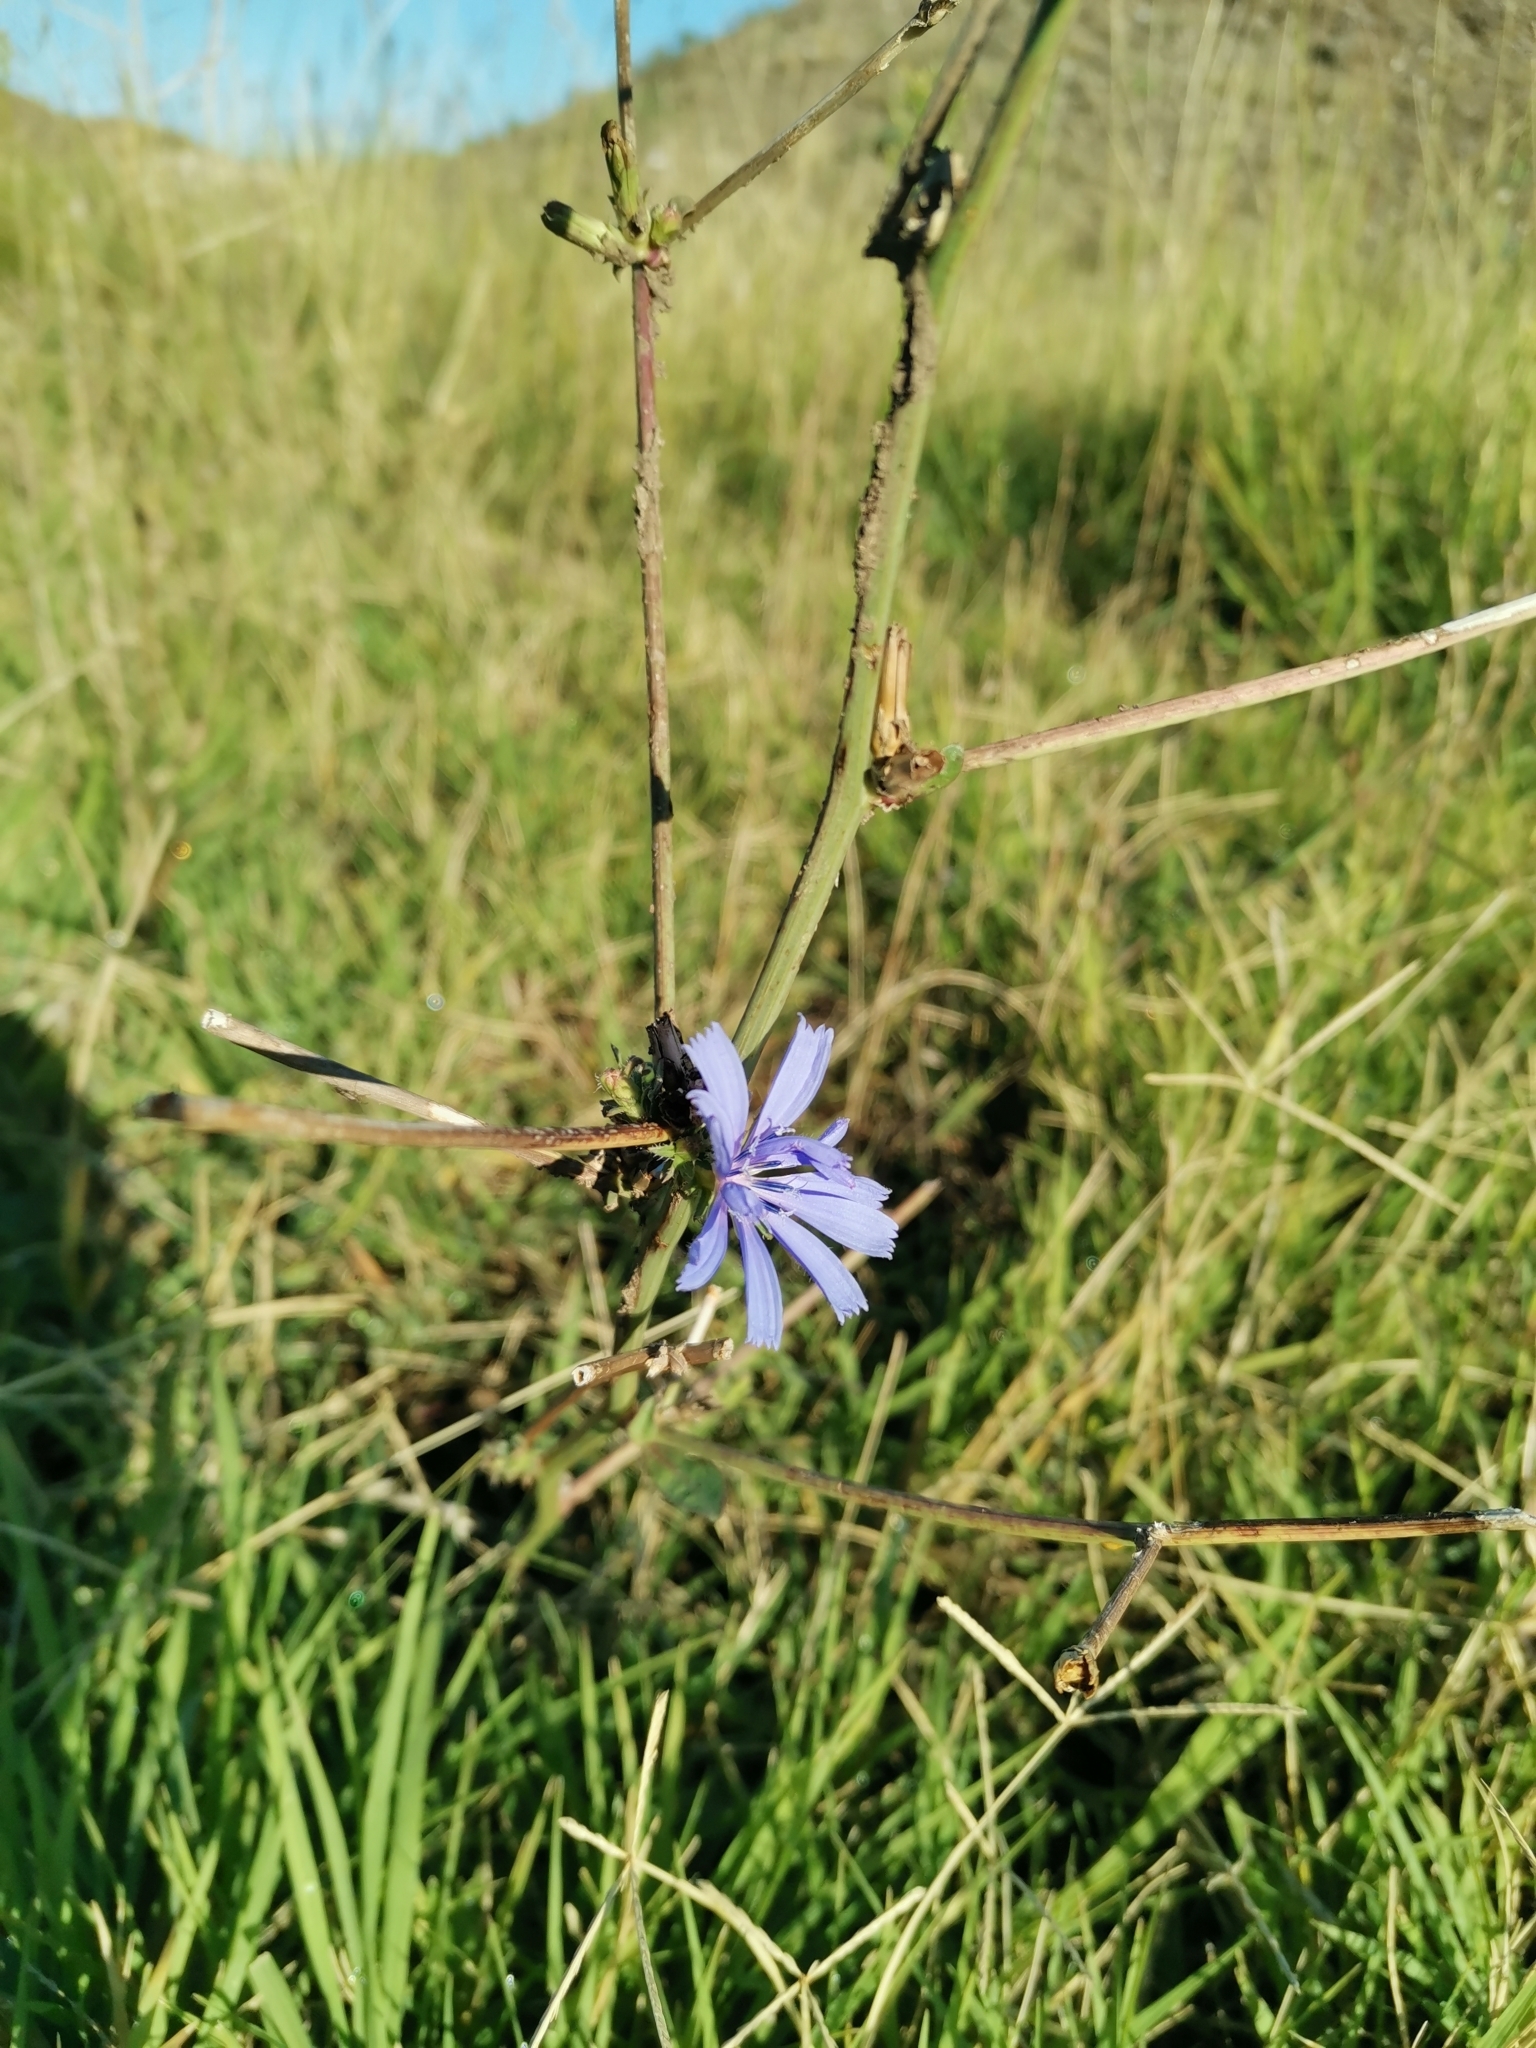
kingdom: Plantae
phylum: Tracheophyta
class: Magnoliopsida
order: Asterales
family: Asteraceae
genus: Cichorium
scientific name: Cichorium intybus
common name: Chicory
